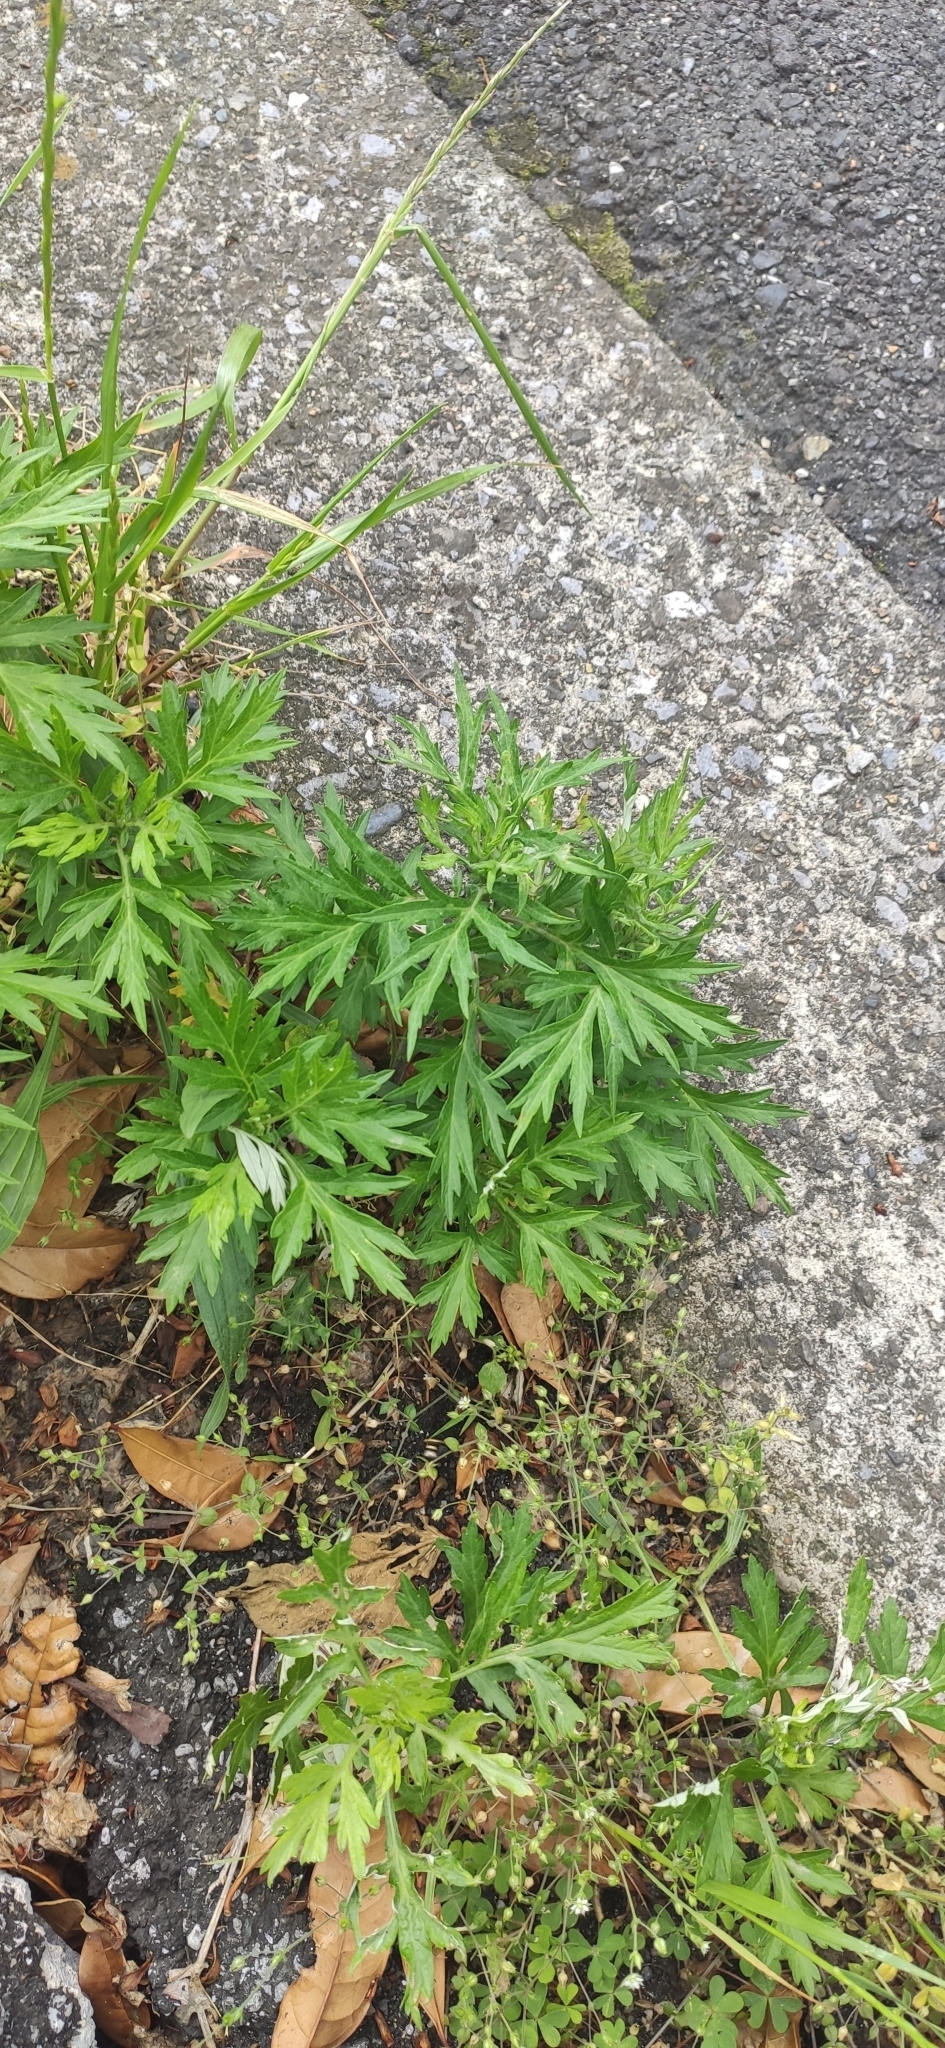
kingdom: Plantae
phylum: Tracheophyta
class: Magnoliopsida
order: Asterales
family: Asteraceae
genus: Artemisia
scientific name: Artemisia princeps
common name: Japanese mugwort
